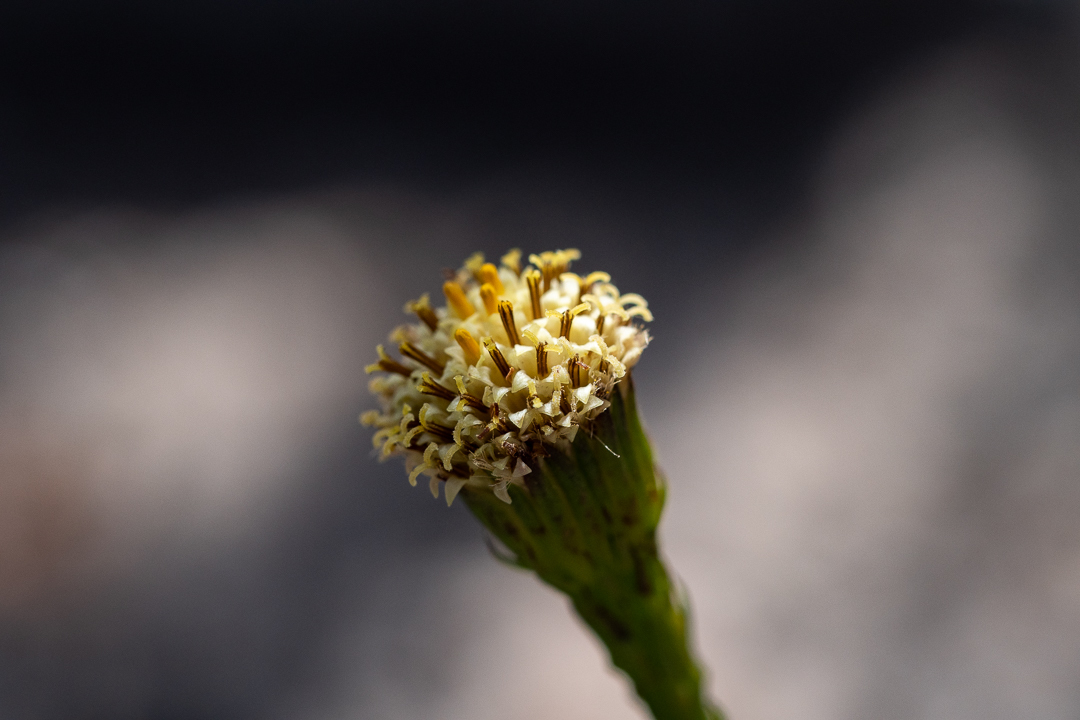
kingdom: Plantae
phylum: Tracheophyta
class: Magnoliopsida
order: Asterales
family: Asteraceae
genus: Senecio
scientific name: Senecio triqueter
